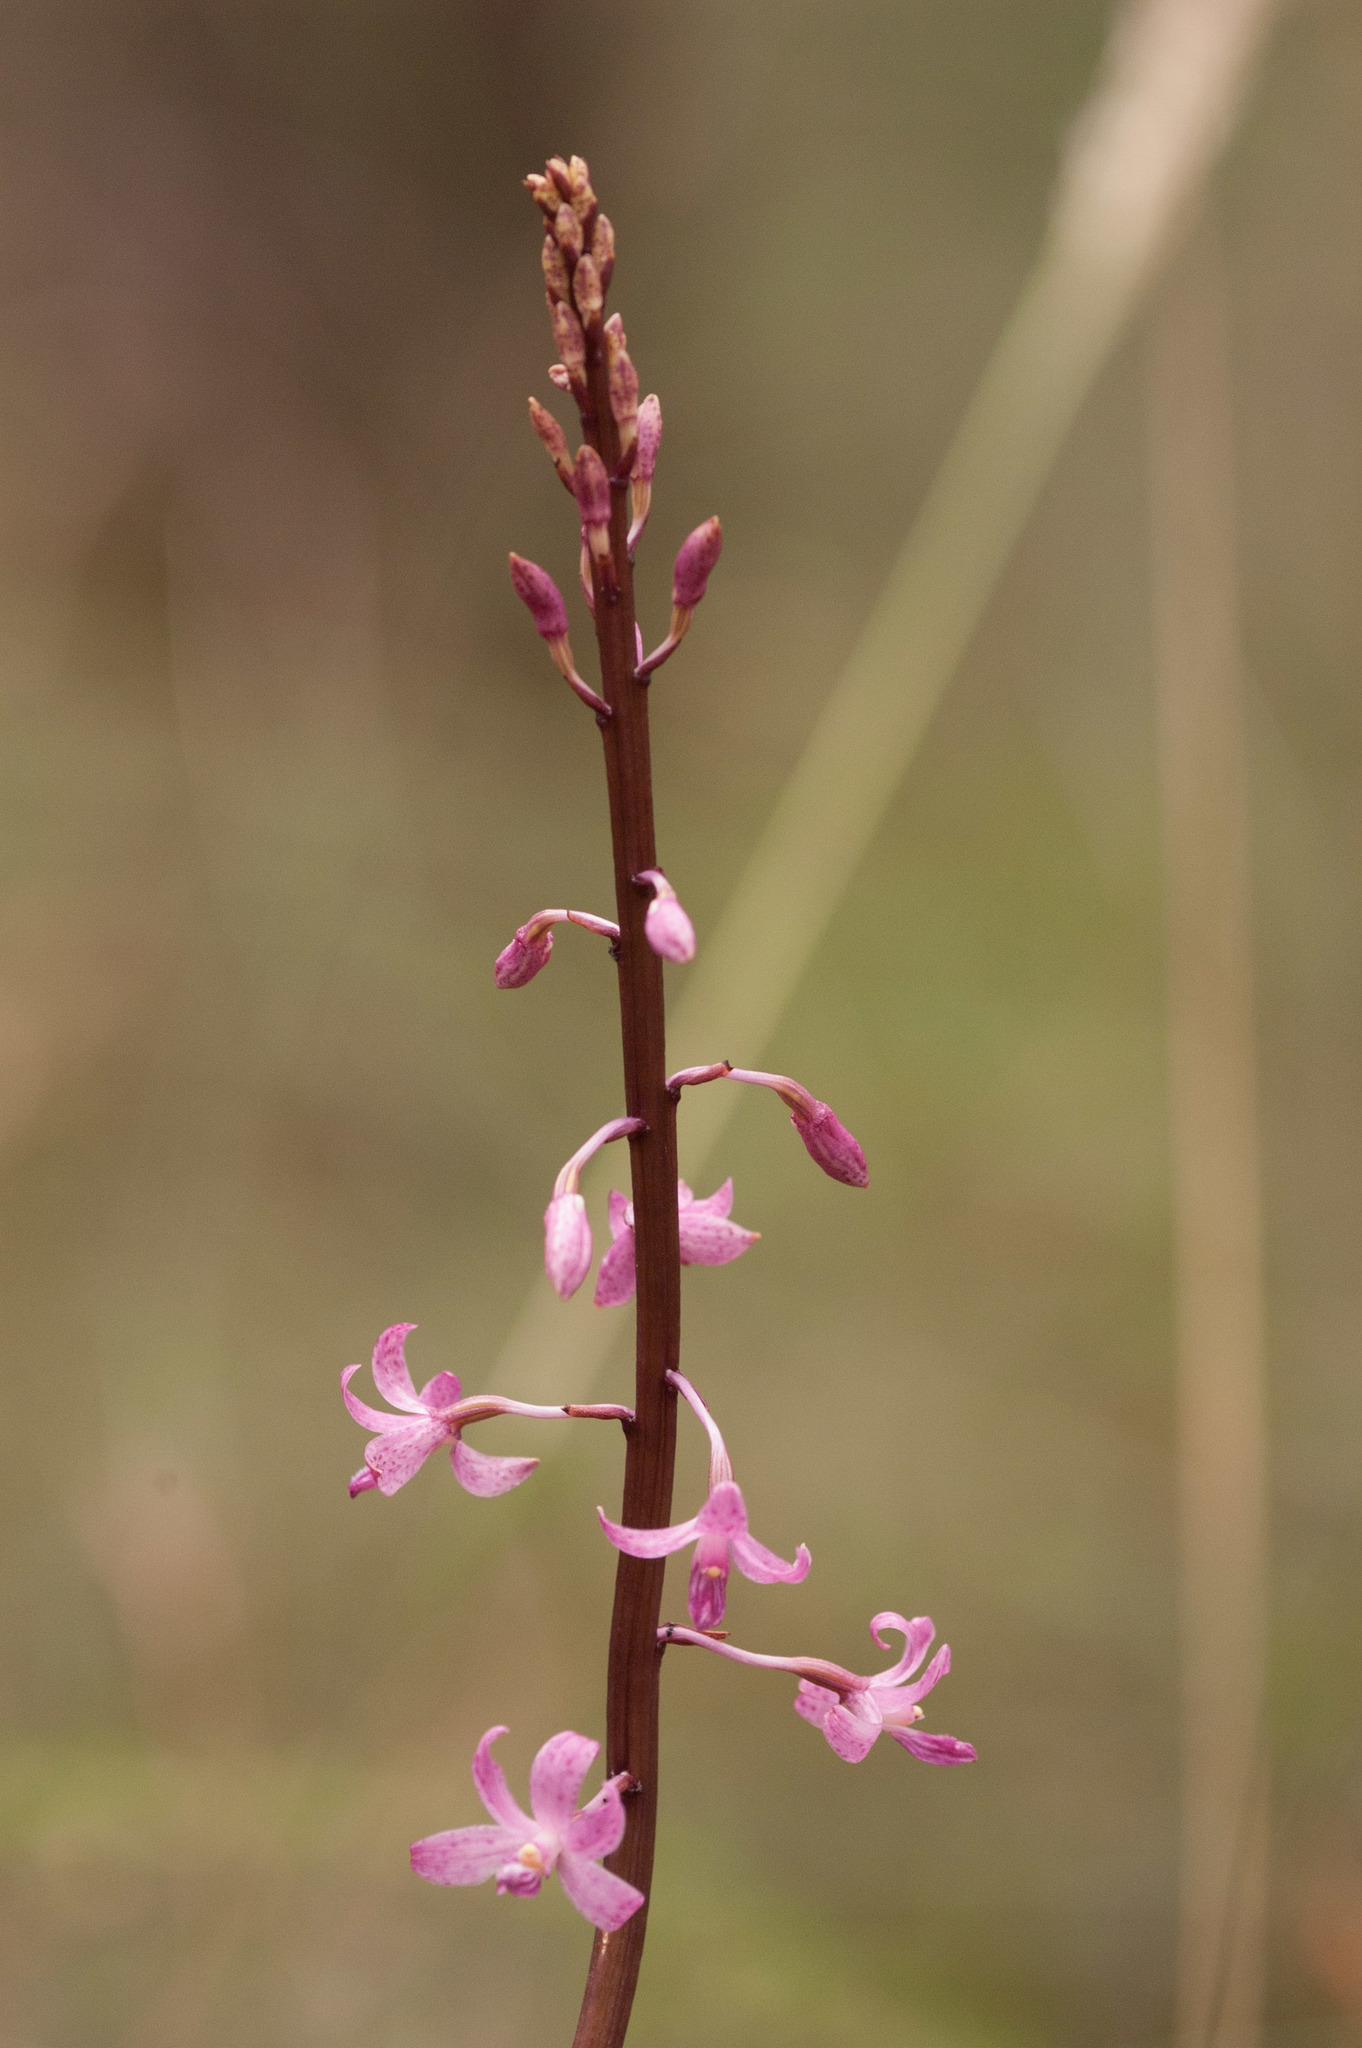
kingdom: Plantae
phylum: Tracheophyta
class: Liliopsida
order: Asparagales
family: Orchidaceae
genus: Dipodium
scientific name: Dipodium roseum
